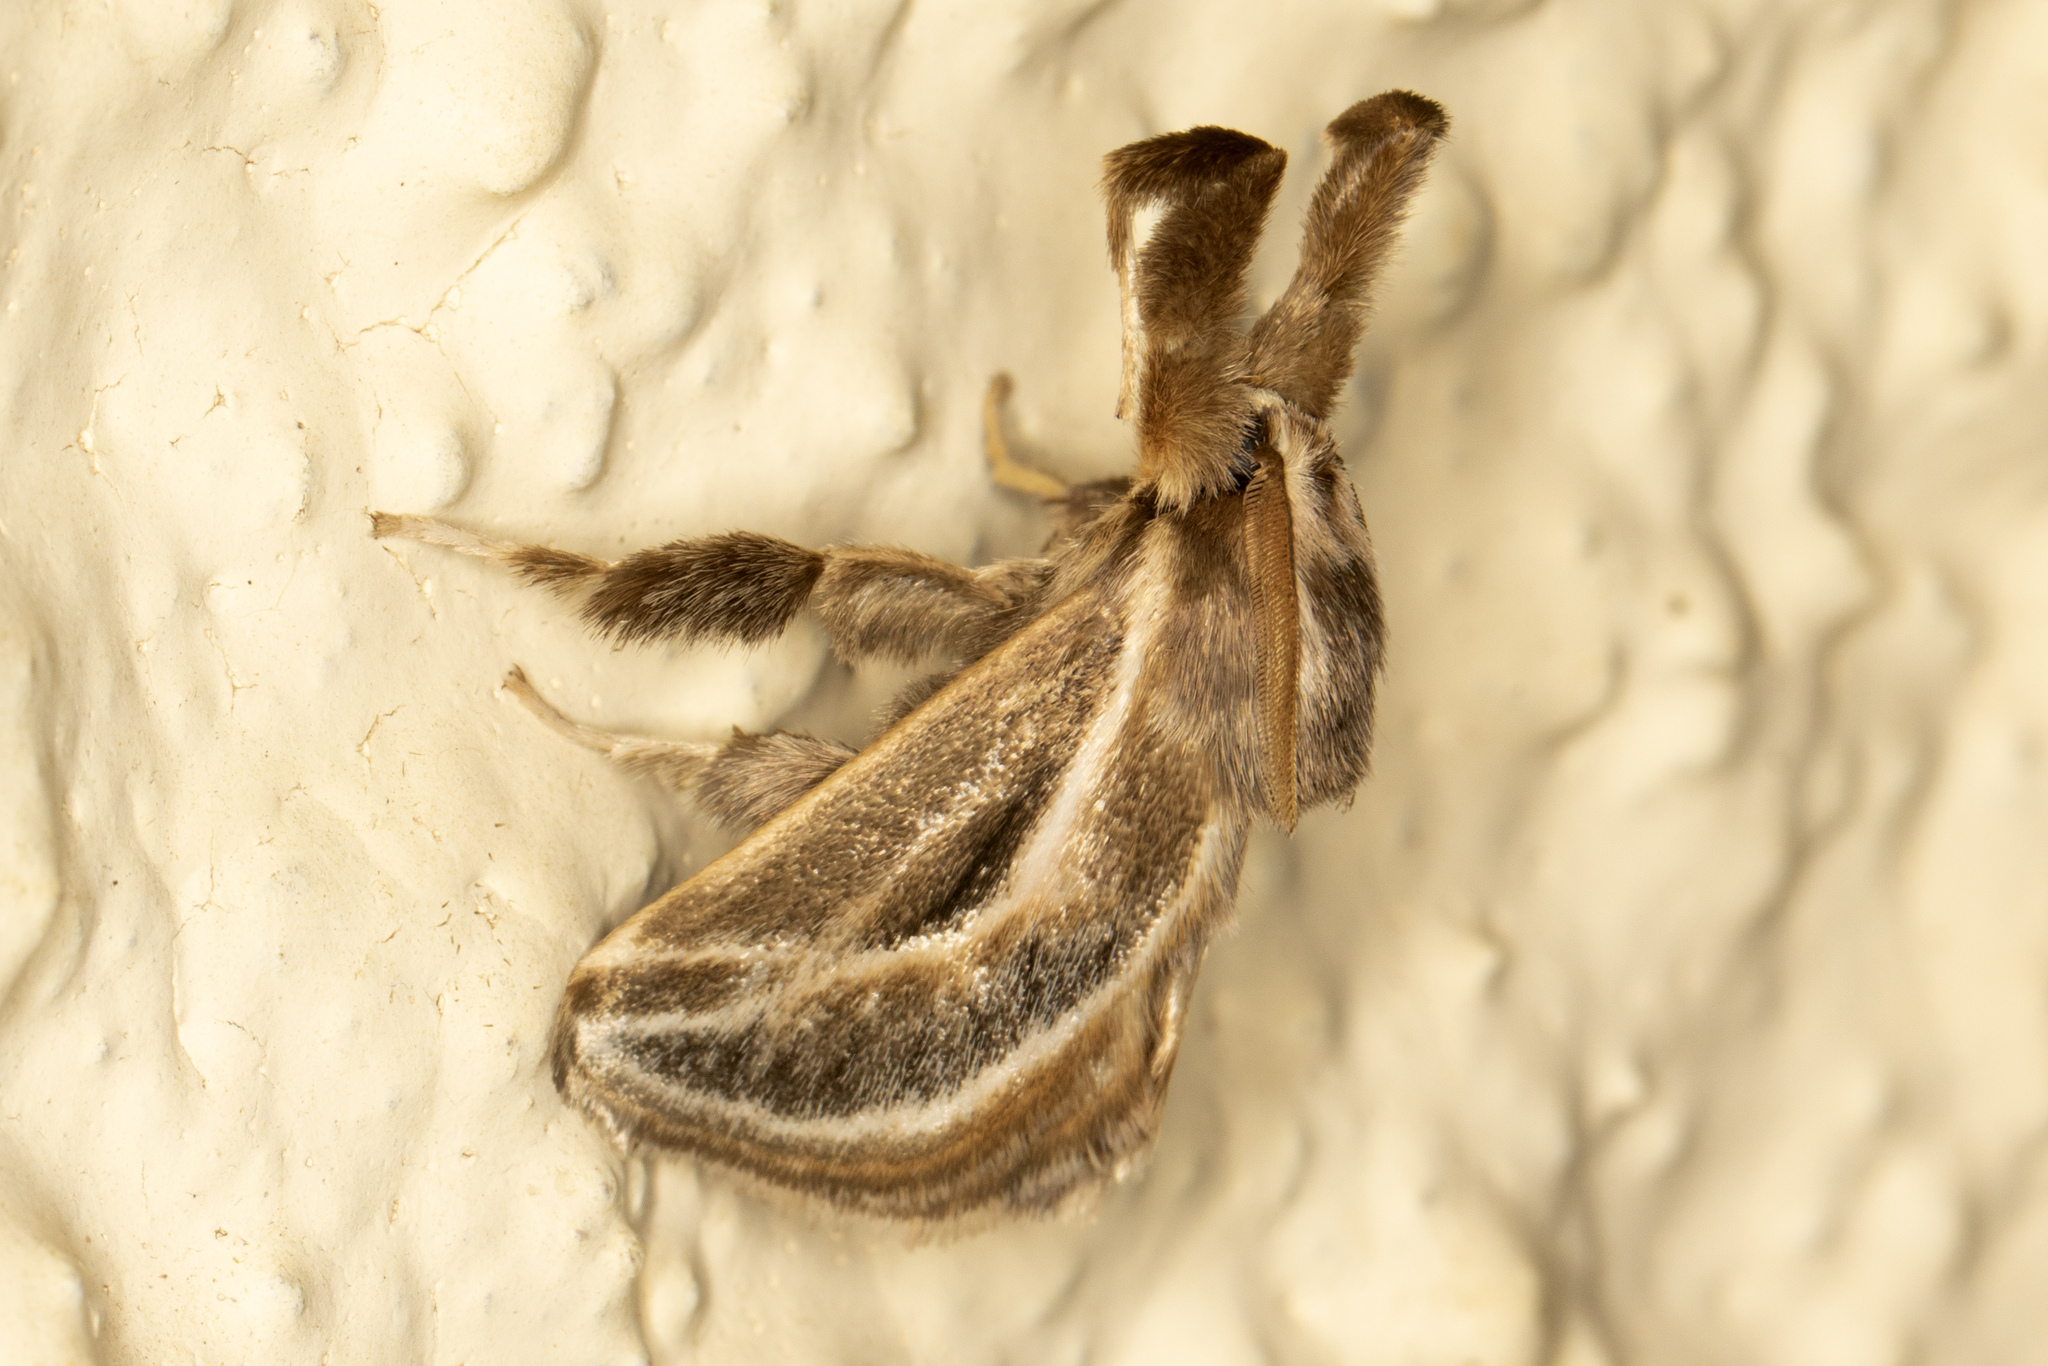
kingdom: Animalia
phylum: Arthropoda
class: Insecta
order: Lepidoptera
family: Limacodidae
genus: Perola
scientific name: Perola brumalis
